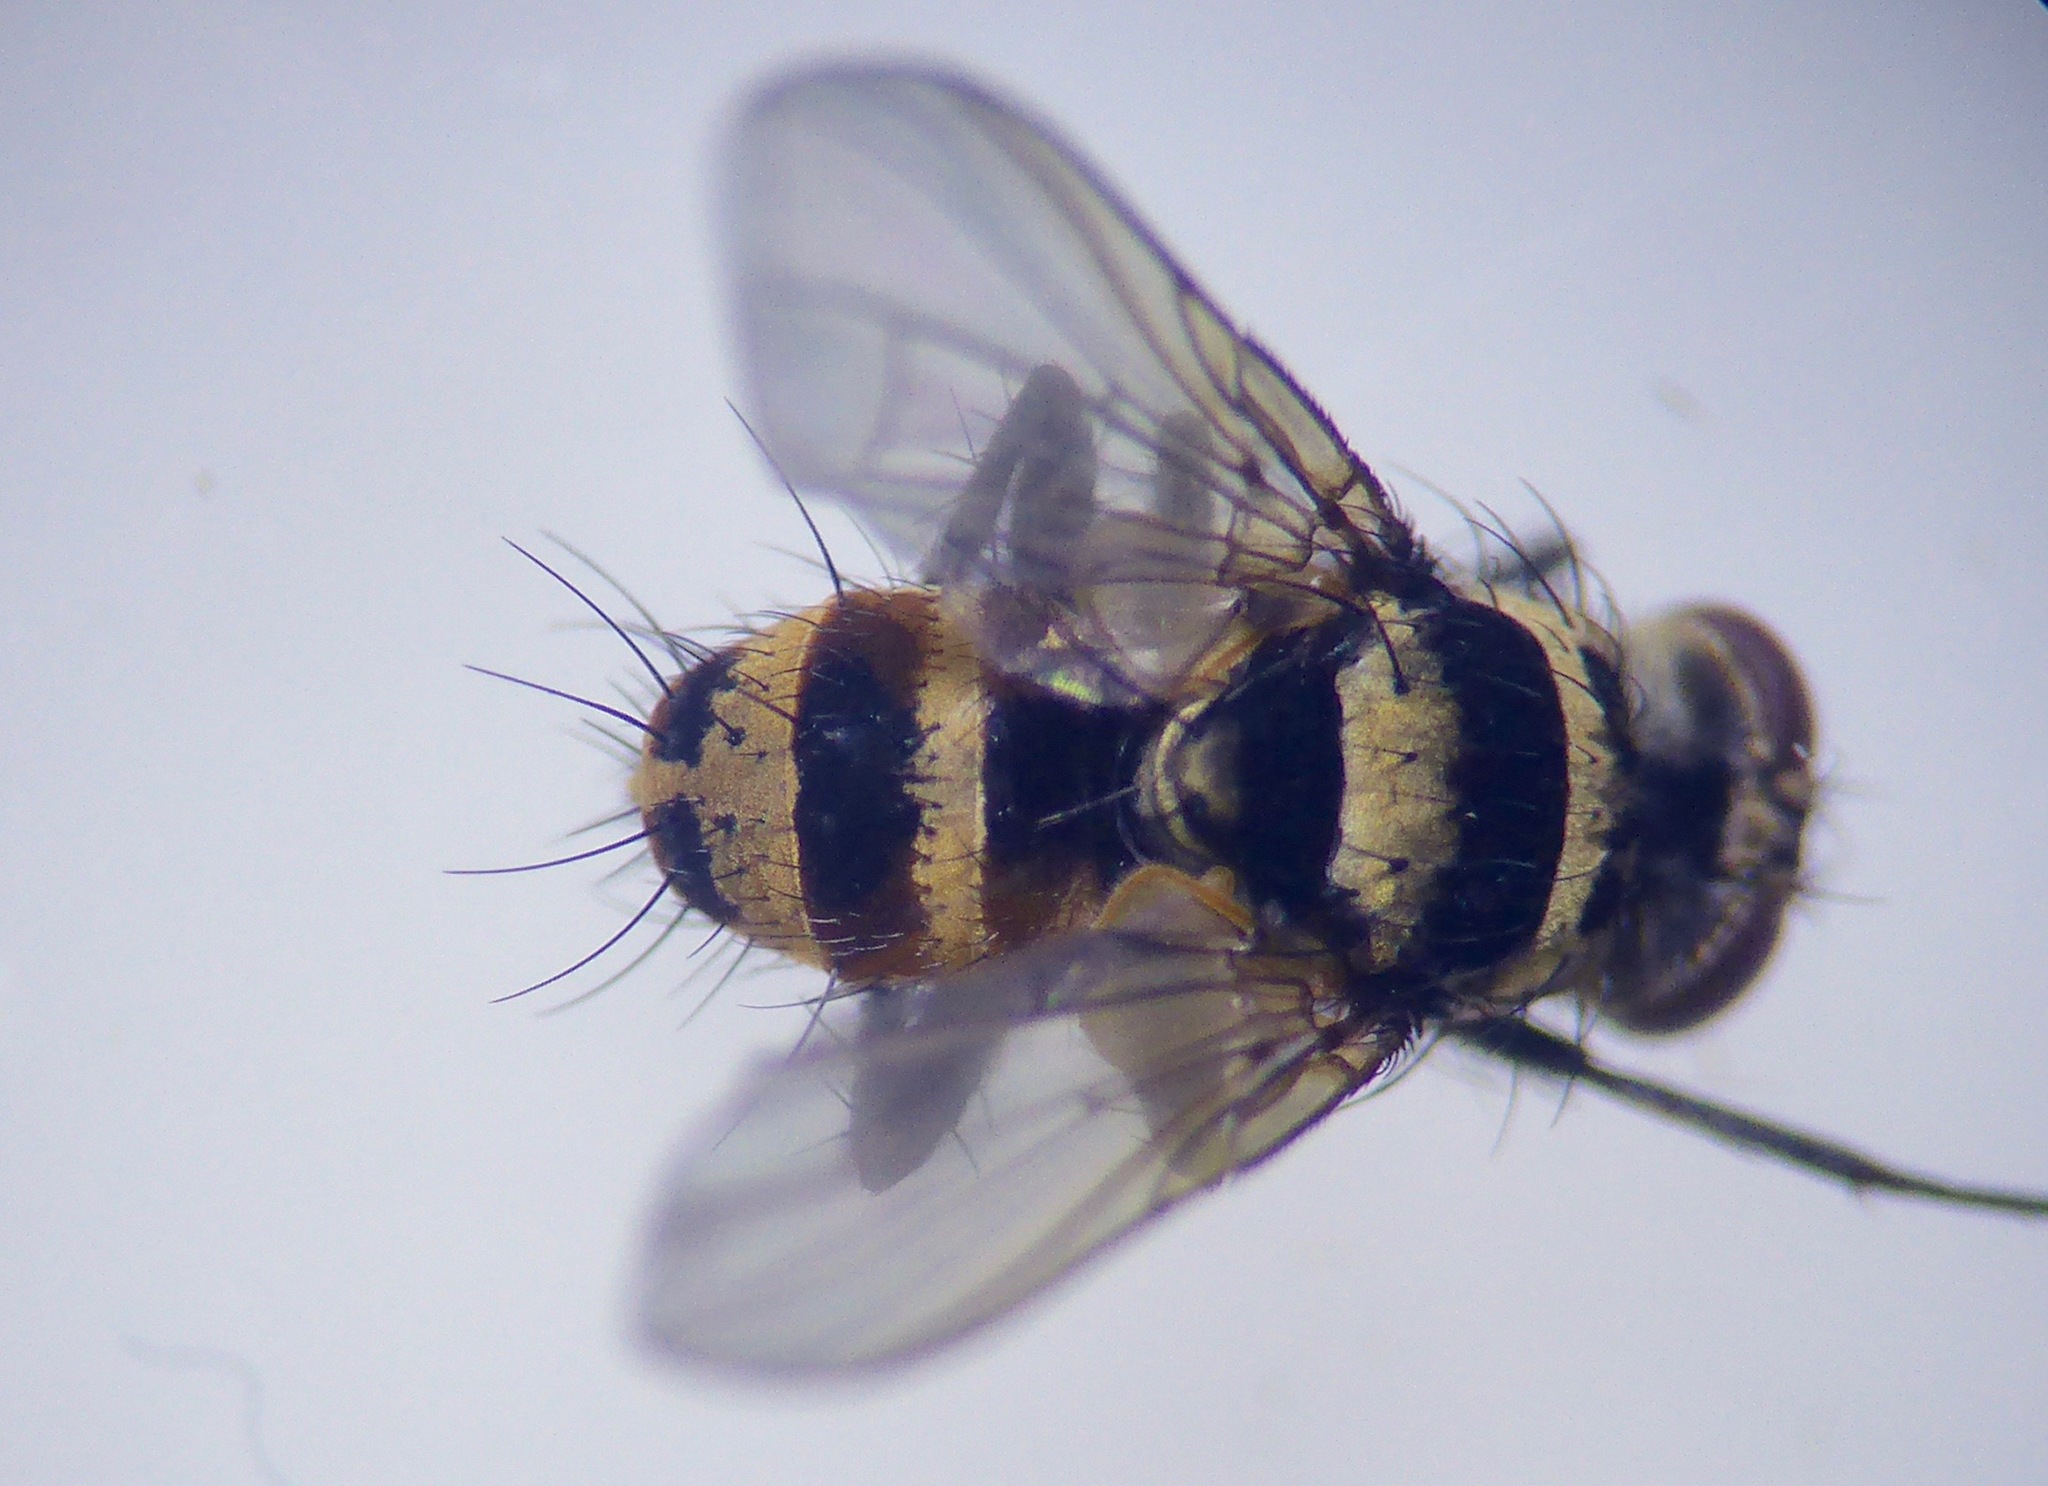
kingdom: Animalia
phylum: Arthropoda
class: Insecta
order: Diptera
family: Tachinidae
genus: Trigonospila
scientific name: Trigonospila brevifacies
